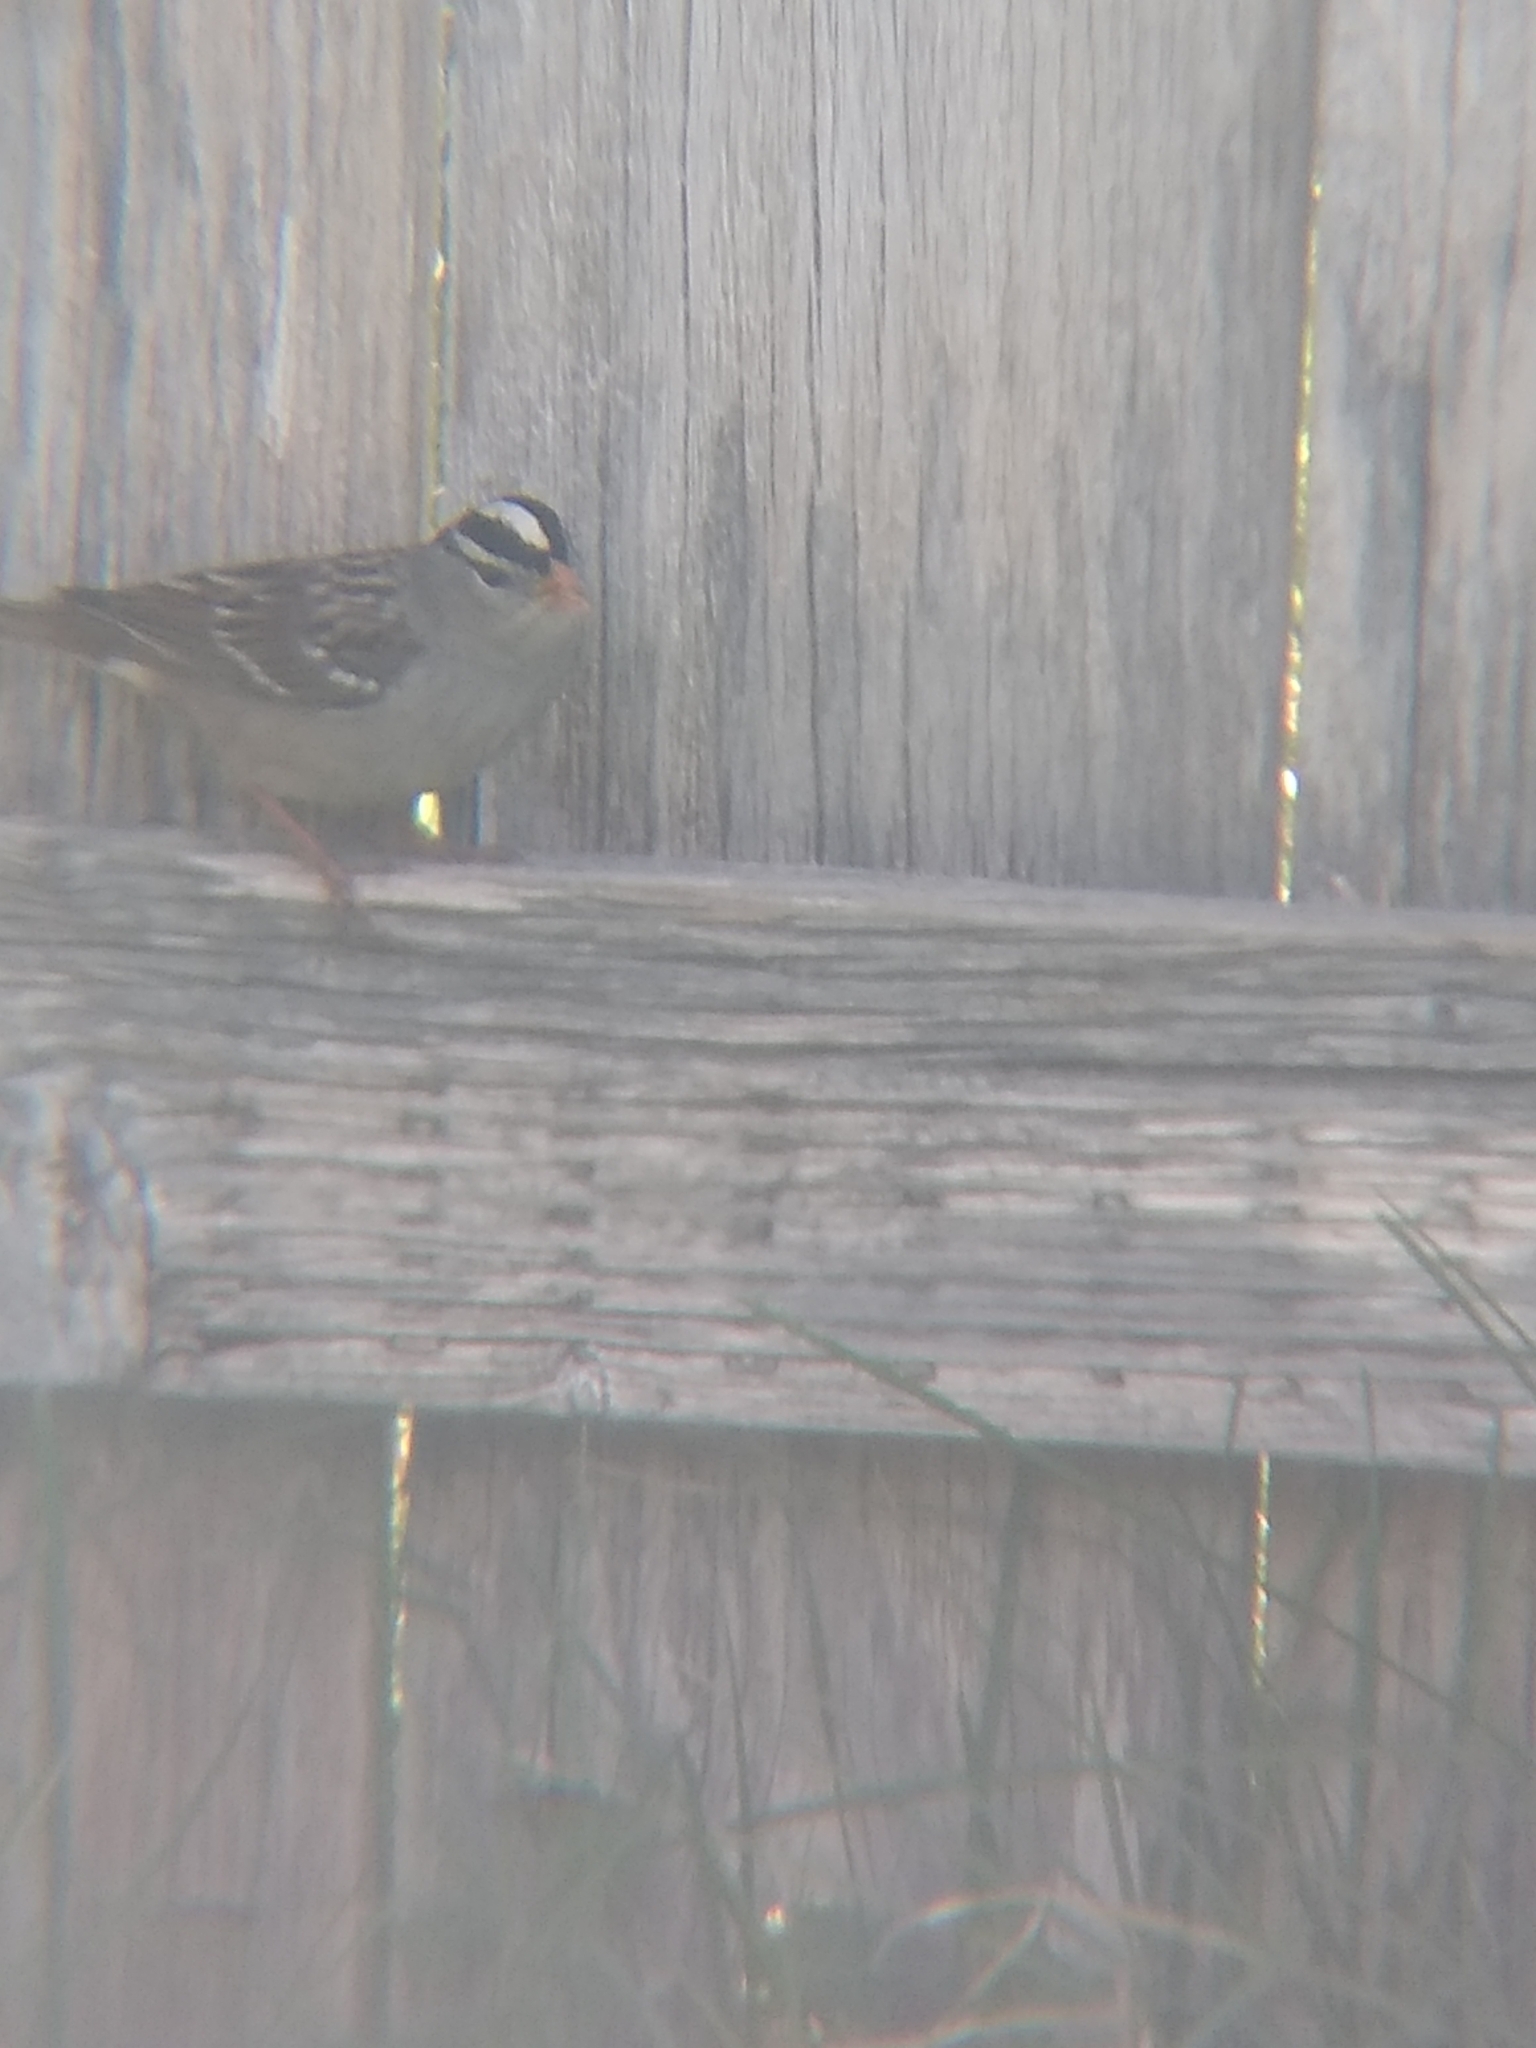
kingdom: Animalia
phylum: Chordata
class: Aves
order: Passeriformes
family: Passerellidae
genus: Zonotrichia
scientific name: Zonotrichia leucophrys
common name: White-crowned sparrow
